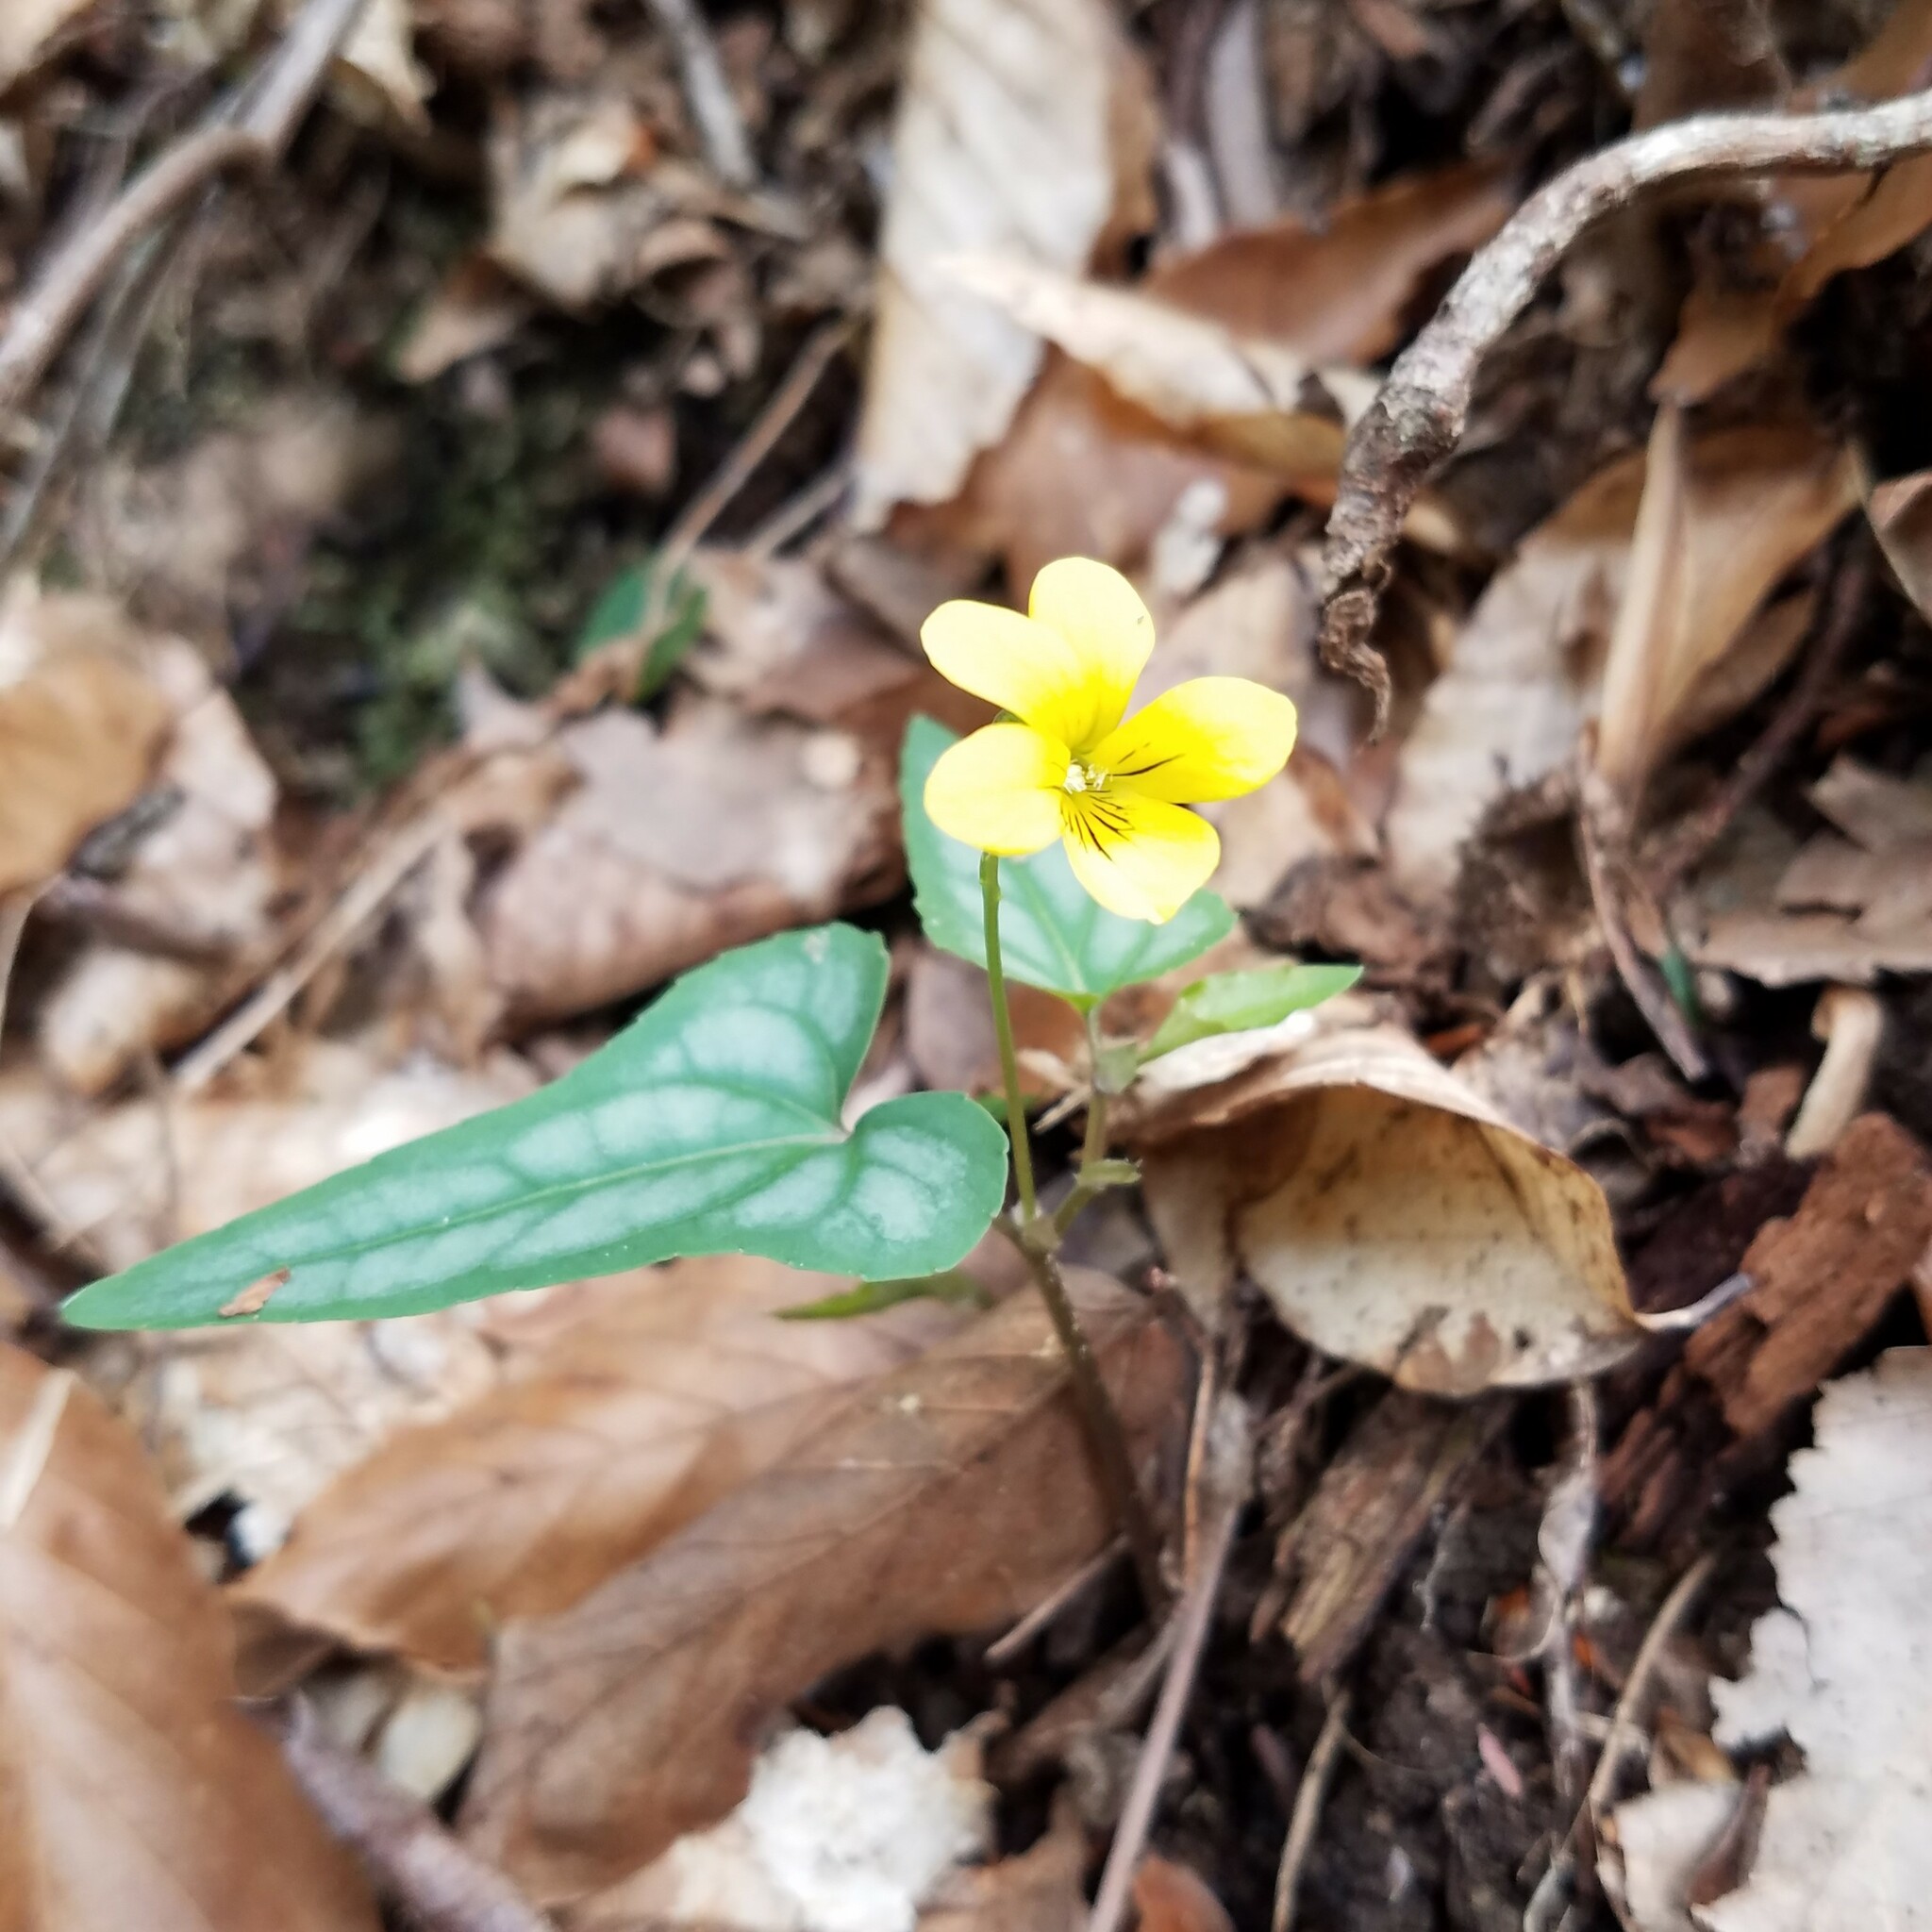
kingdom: Plantae
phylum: Tracheophyta
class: Magnoliopsida
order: Malpighiales
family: Violaceae
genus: Viola
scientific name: Viola hastata
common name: Spear-leaf violet
